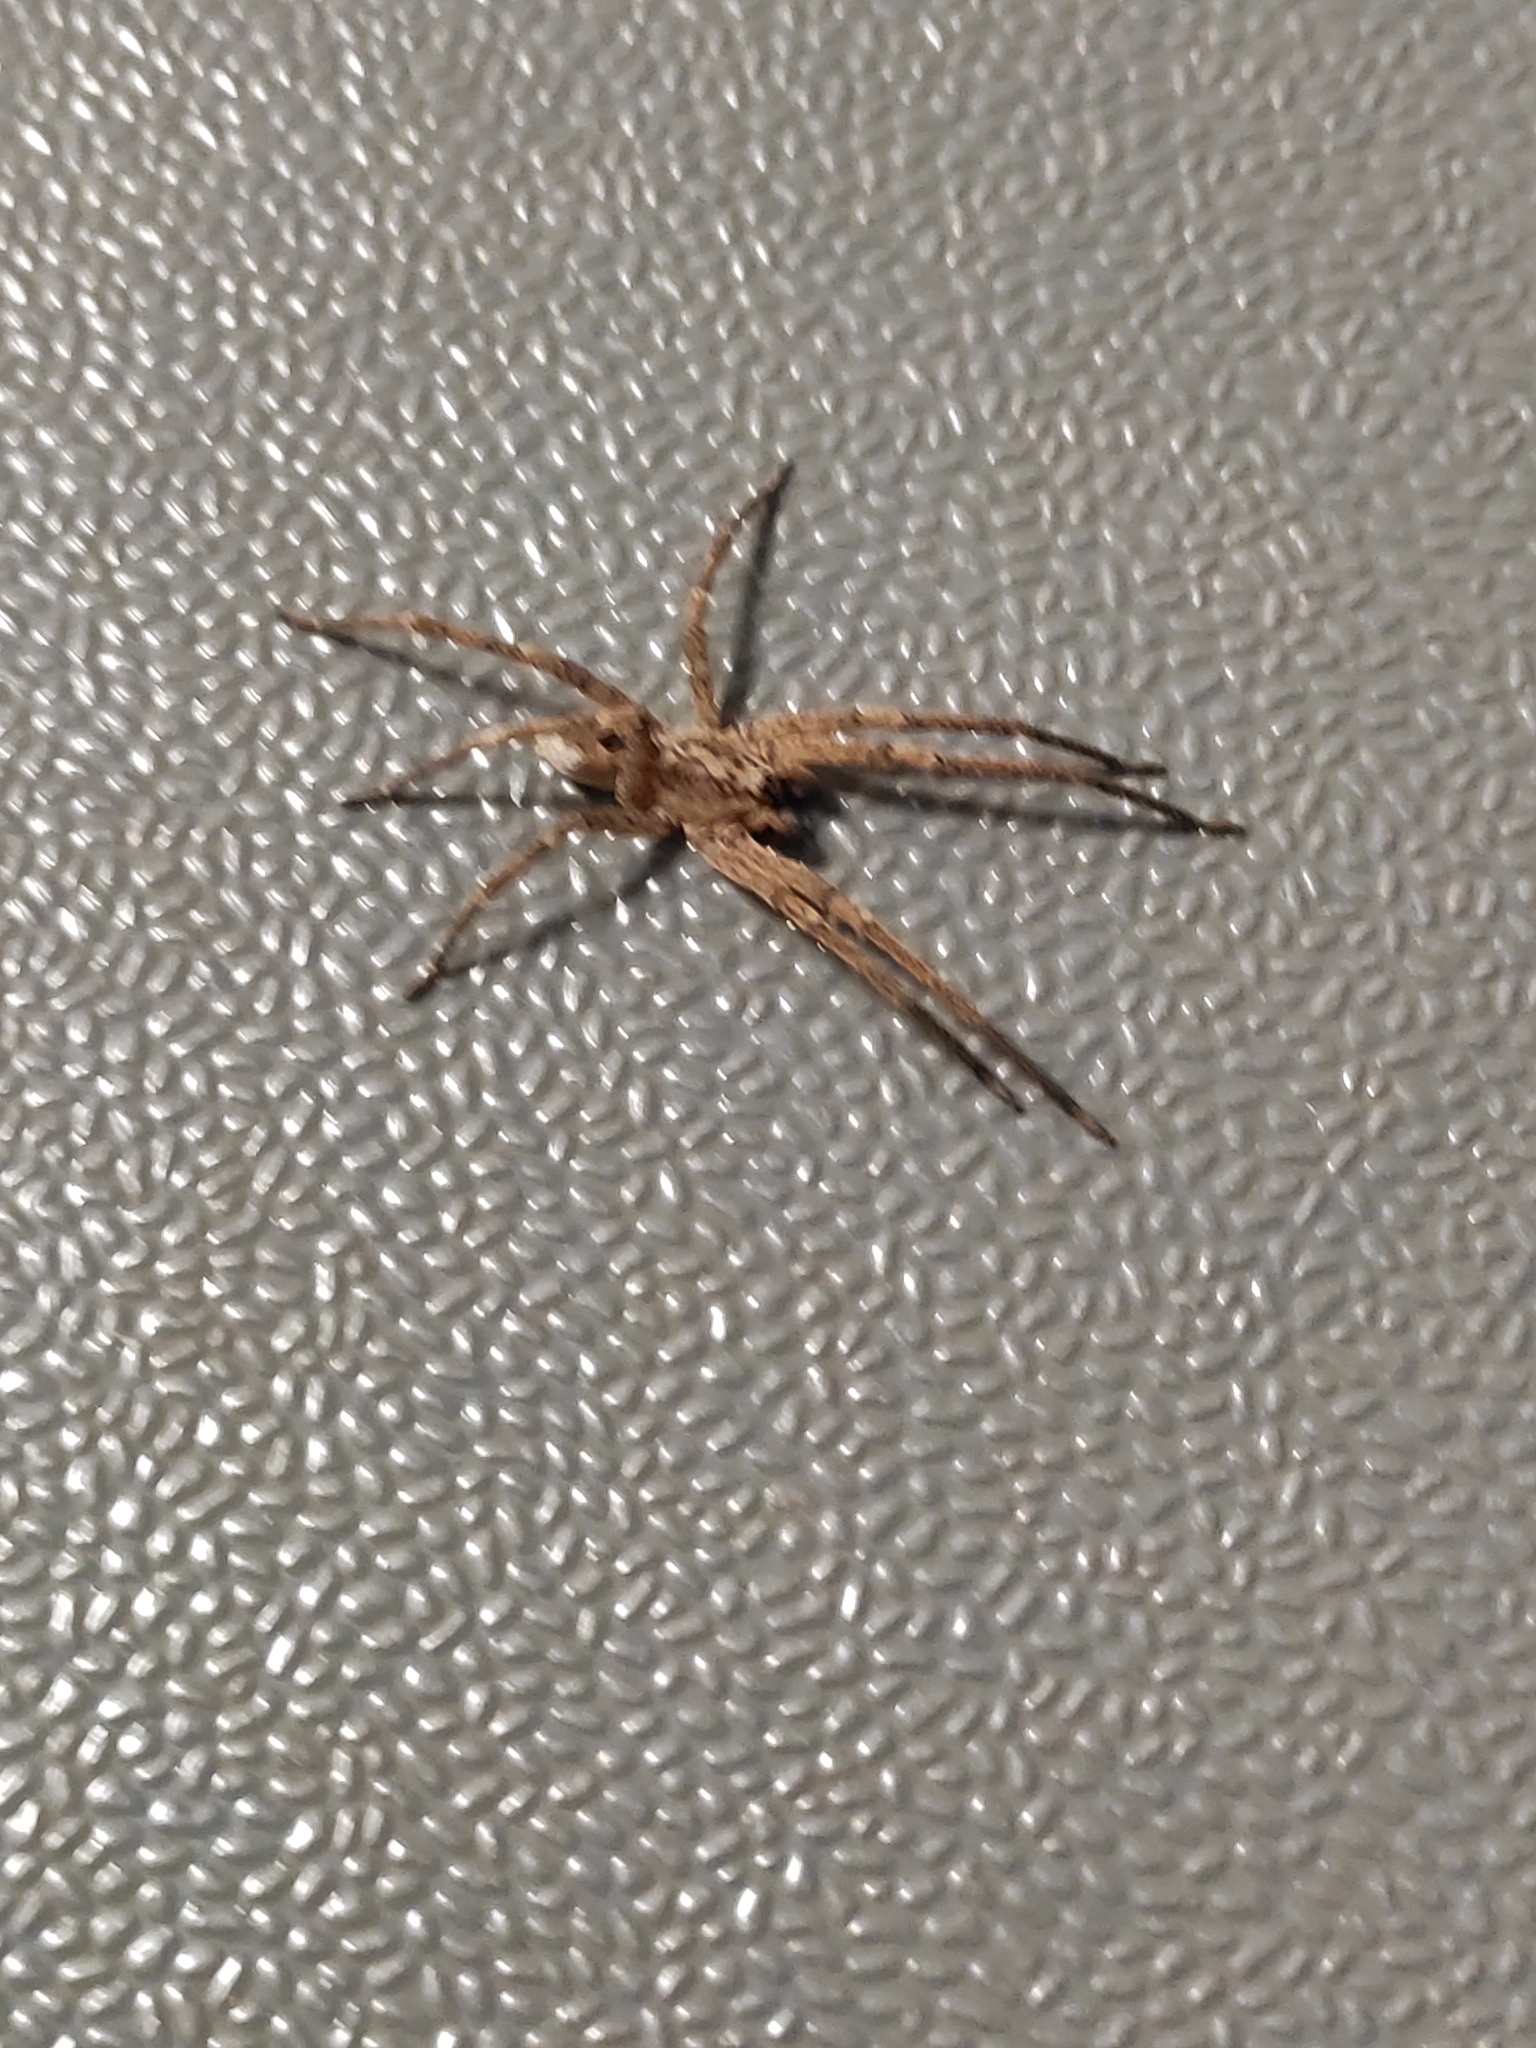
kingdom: Animalia
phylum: Arthropoda
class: Arachnida
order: Araneae
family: Zoropsidae
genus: Zoropsis
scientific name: Zoropsis spinimana
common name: Zoropsid spider
